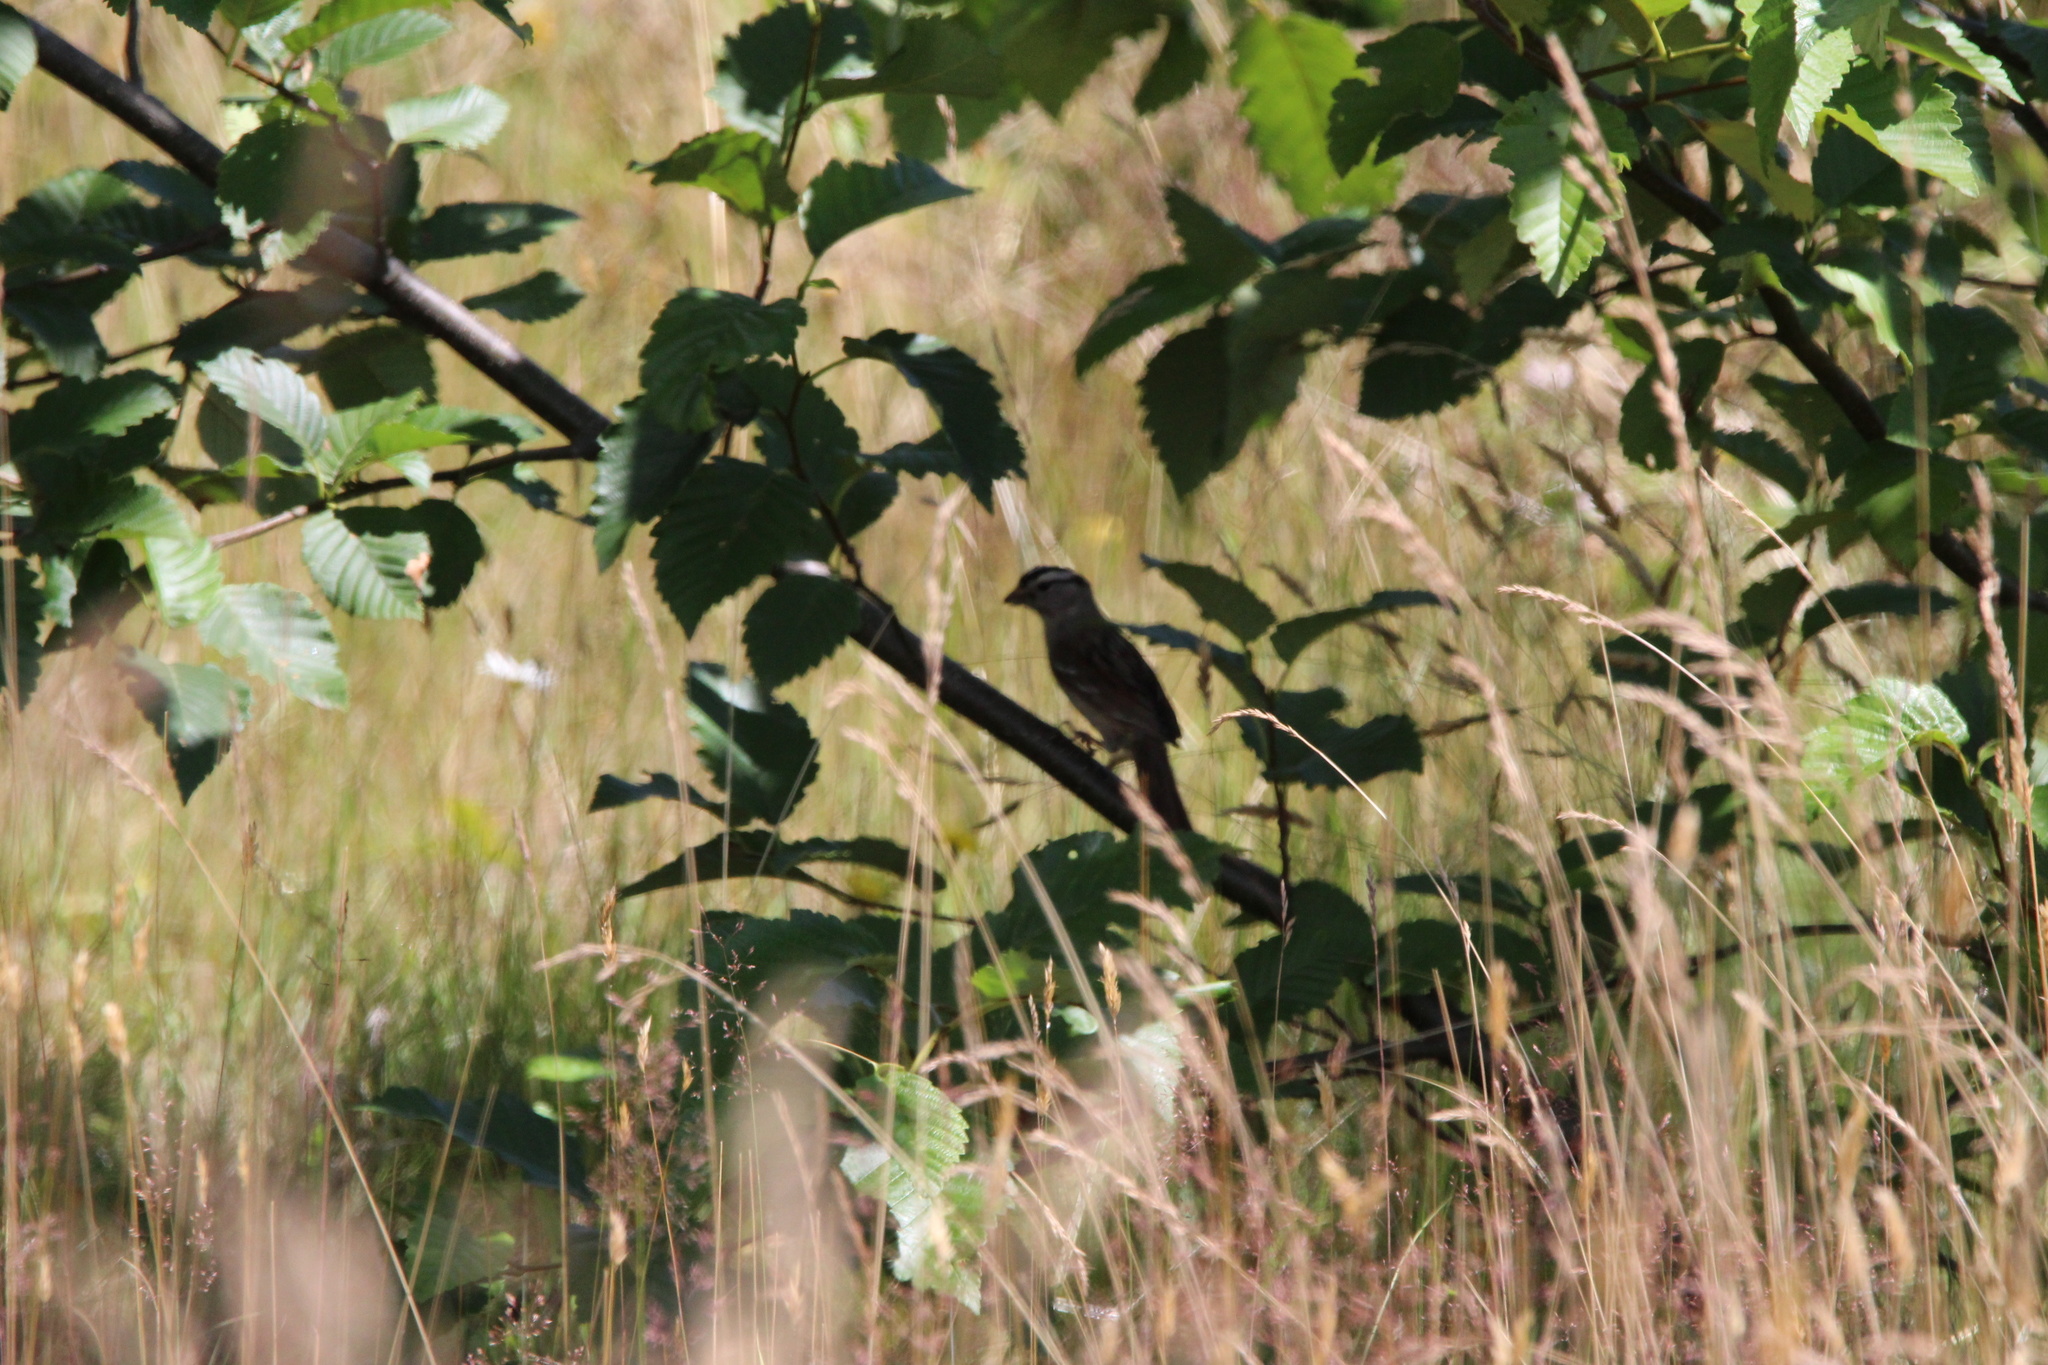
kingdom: Animalia
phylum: Chordata
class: Aves
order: Passeriformes
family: Passerellidae
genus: Zonotrichia
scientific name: Zonotrichia leucophrys
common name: White-crowned sparrow
